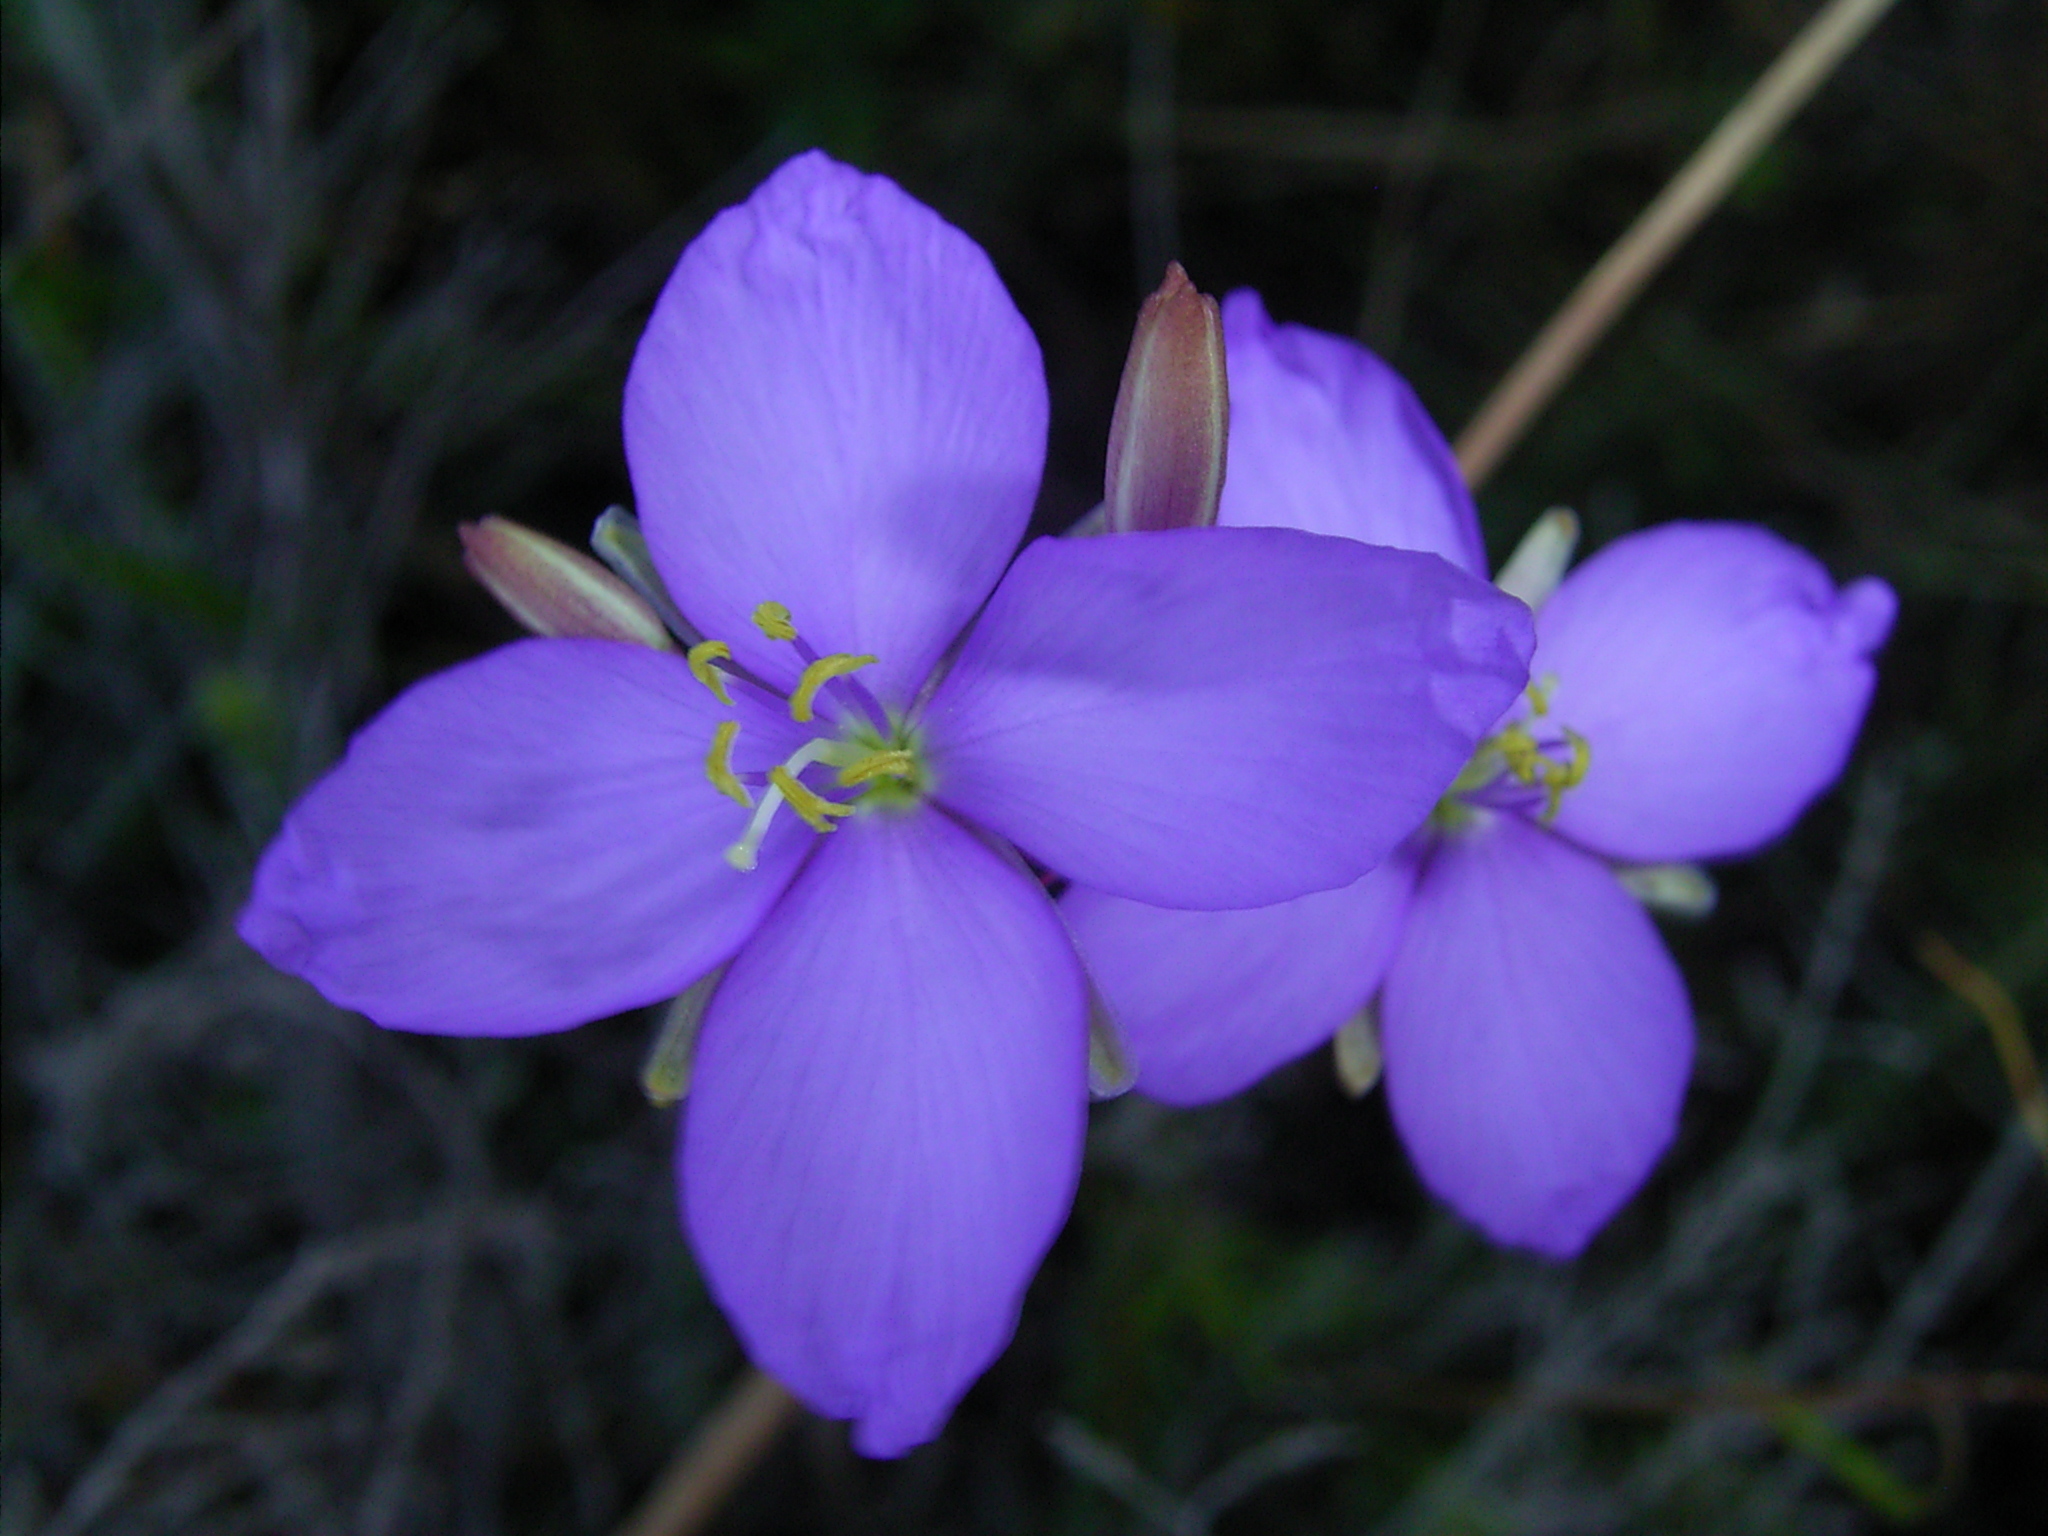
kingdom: Plantae
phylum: Tracheophyta
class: Magnoliopsida
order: Brassicales
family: Brassicaceae
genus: Heliophila
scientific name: Heliophila subulata
